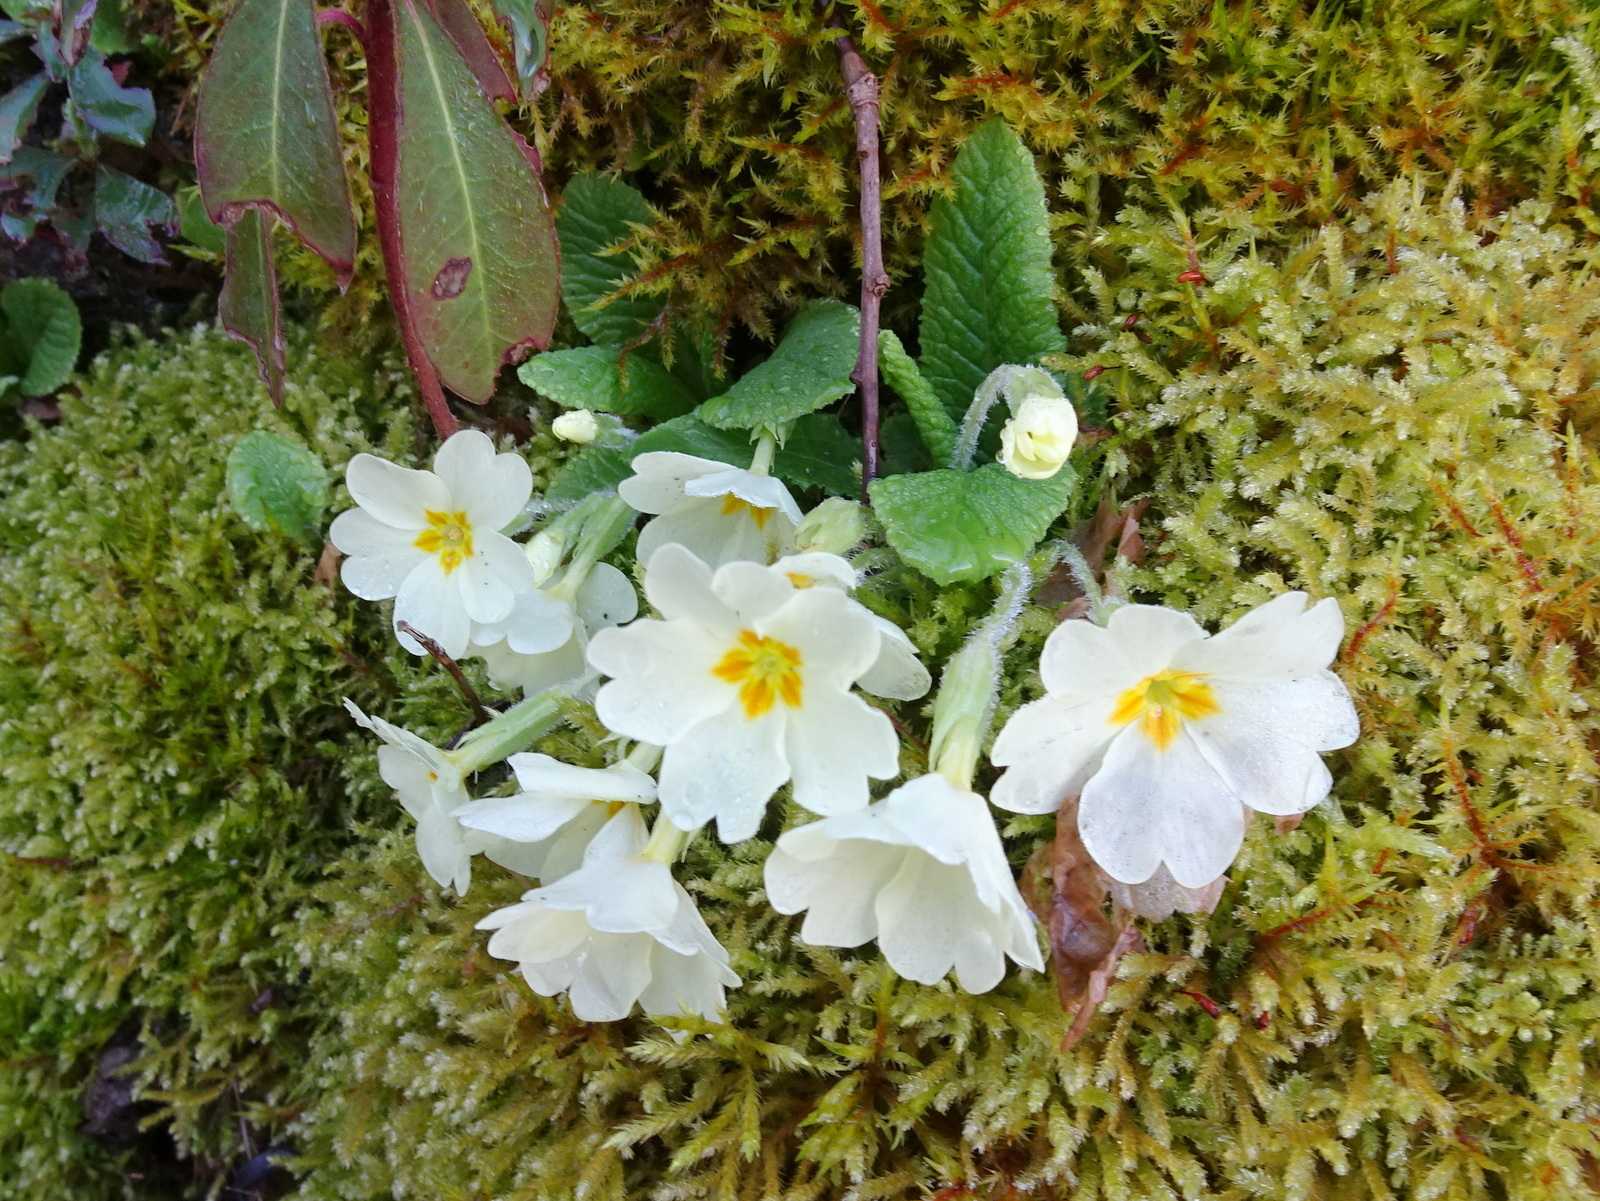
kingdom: Plantae
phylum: Tracheophyta
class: Magnoliopsida
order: Ericales
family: Primulaceae
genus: Primula
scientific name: Primula vulgaris
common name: Primrose
